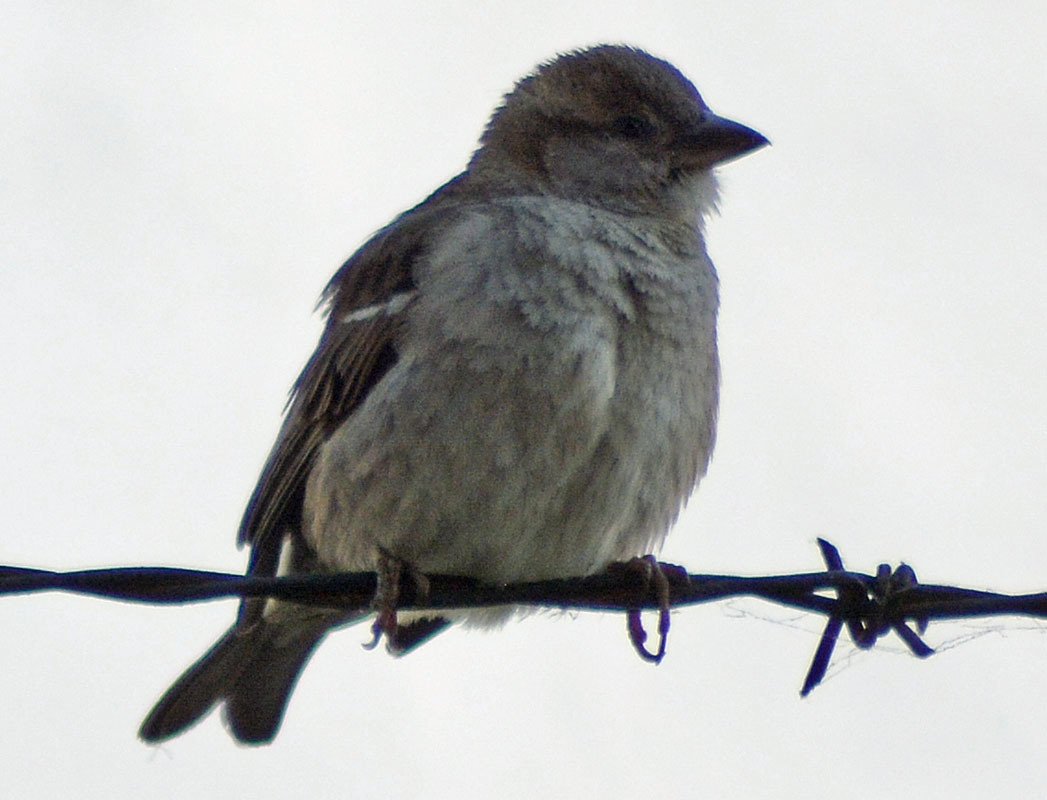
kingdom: Animalia
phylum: Chordata
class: Aves
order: Passeriformes
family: Passeridae
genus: Passer
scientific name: Passer domesticus
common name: House sparrow
